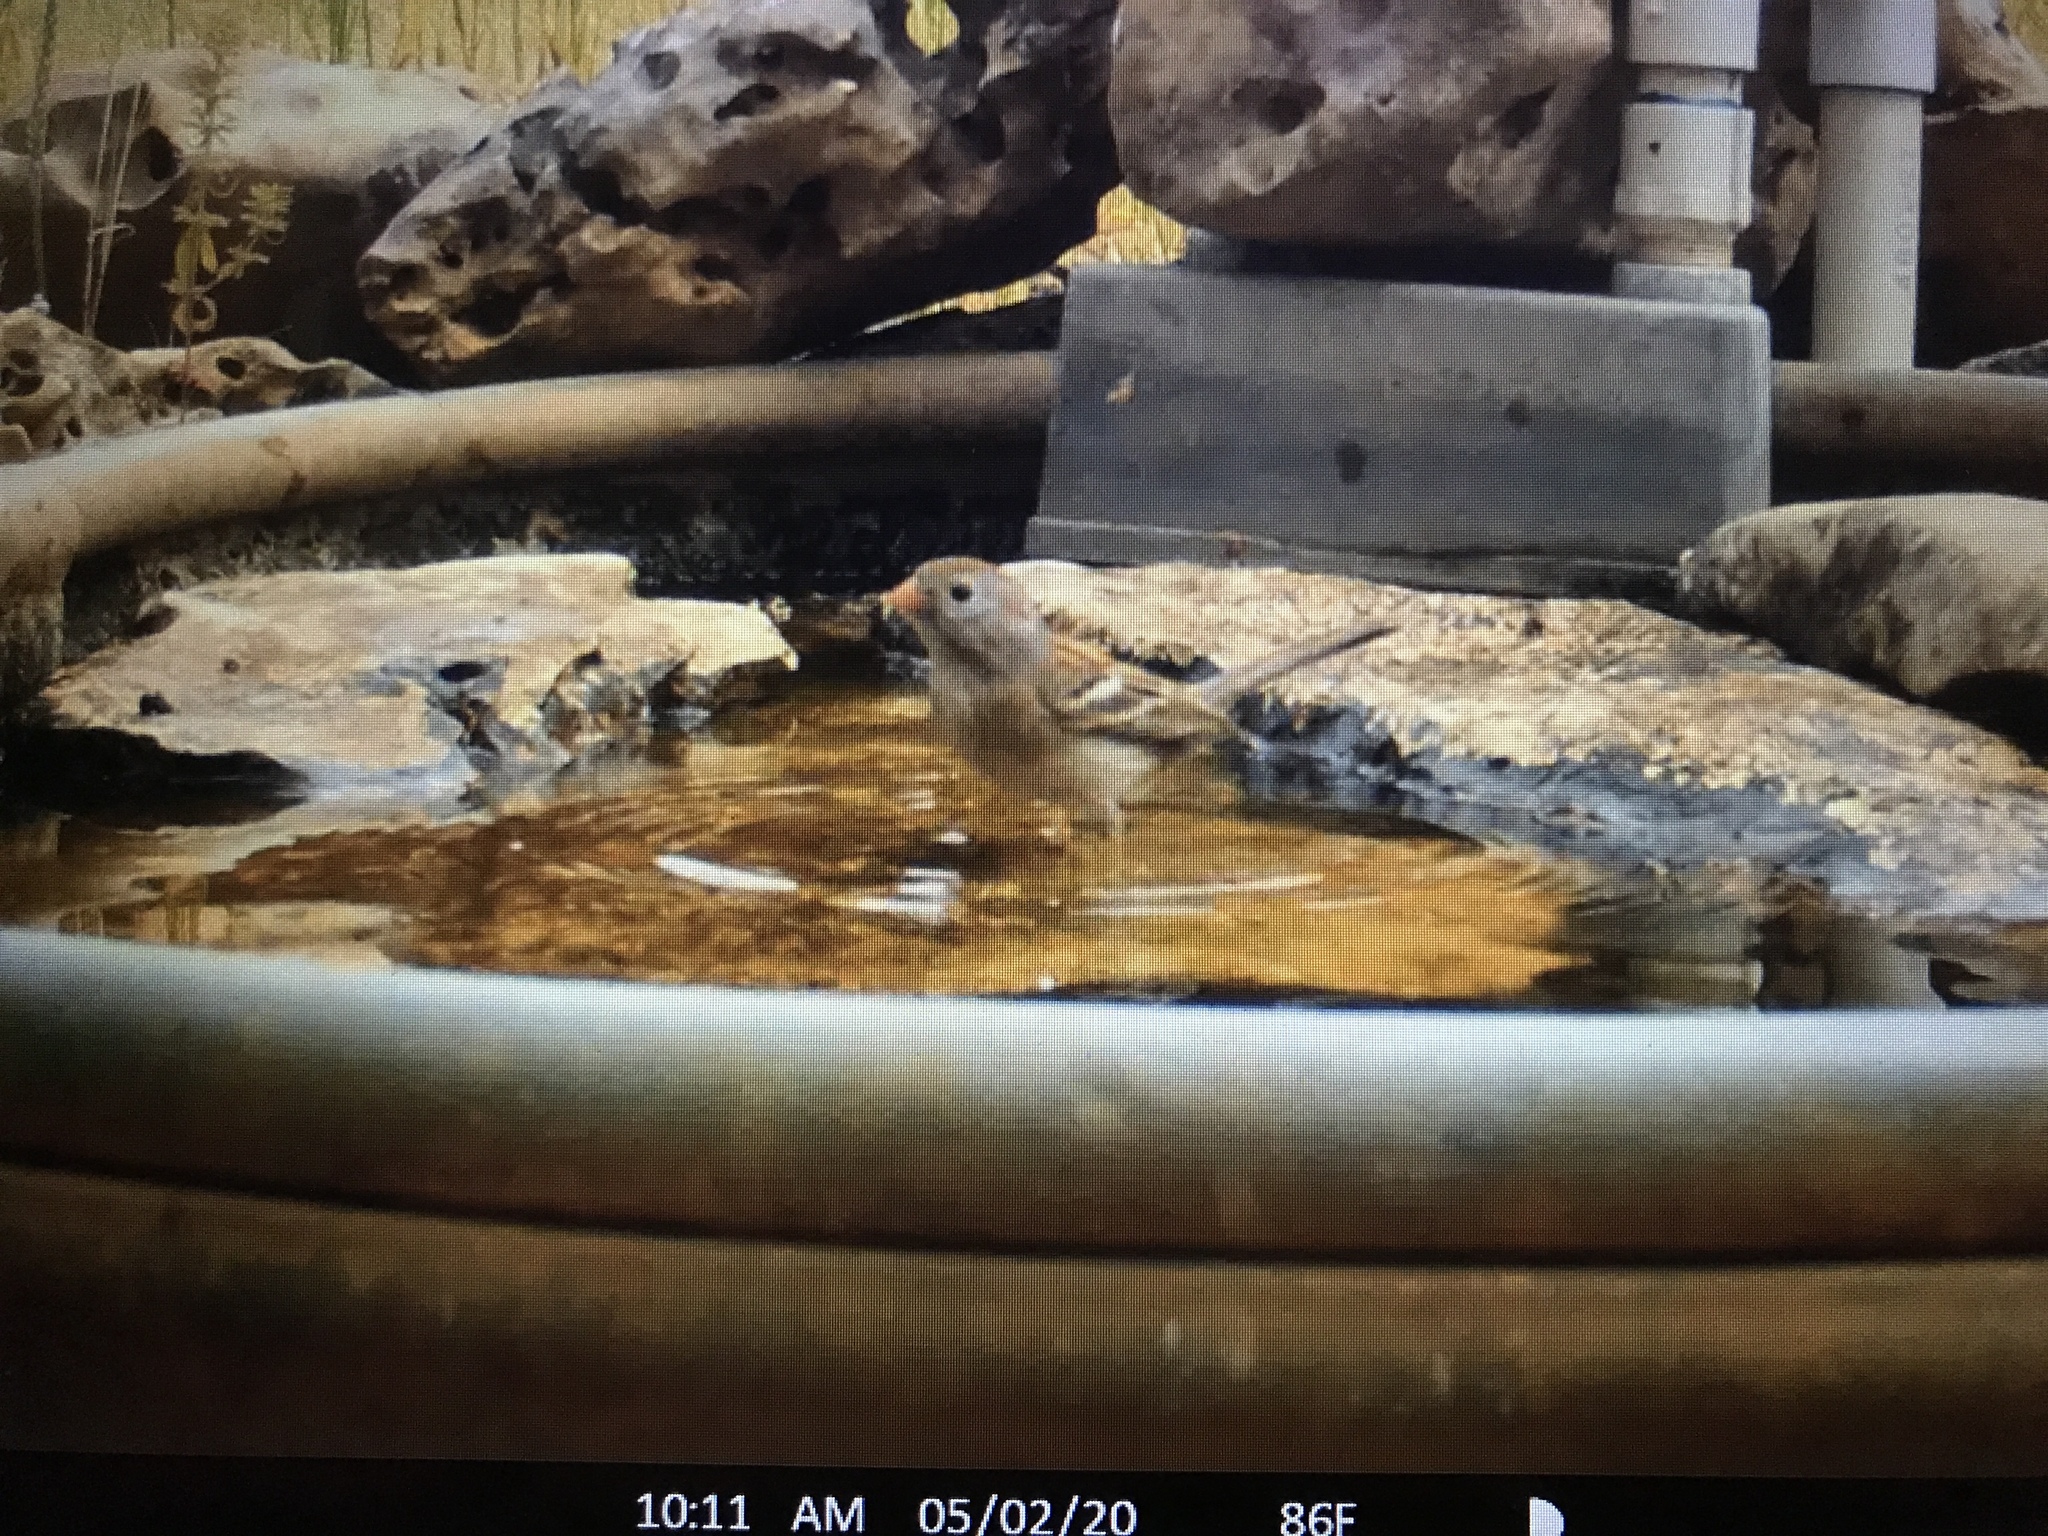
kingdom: Animalia
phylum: Chordata
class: Aves
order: Passeriformes
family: Passerellidae
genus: Spizella
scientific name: Spizella pusilla
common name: Field sparrow
